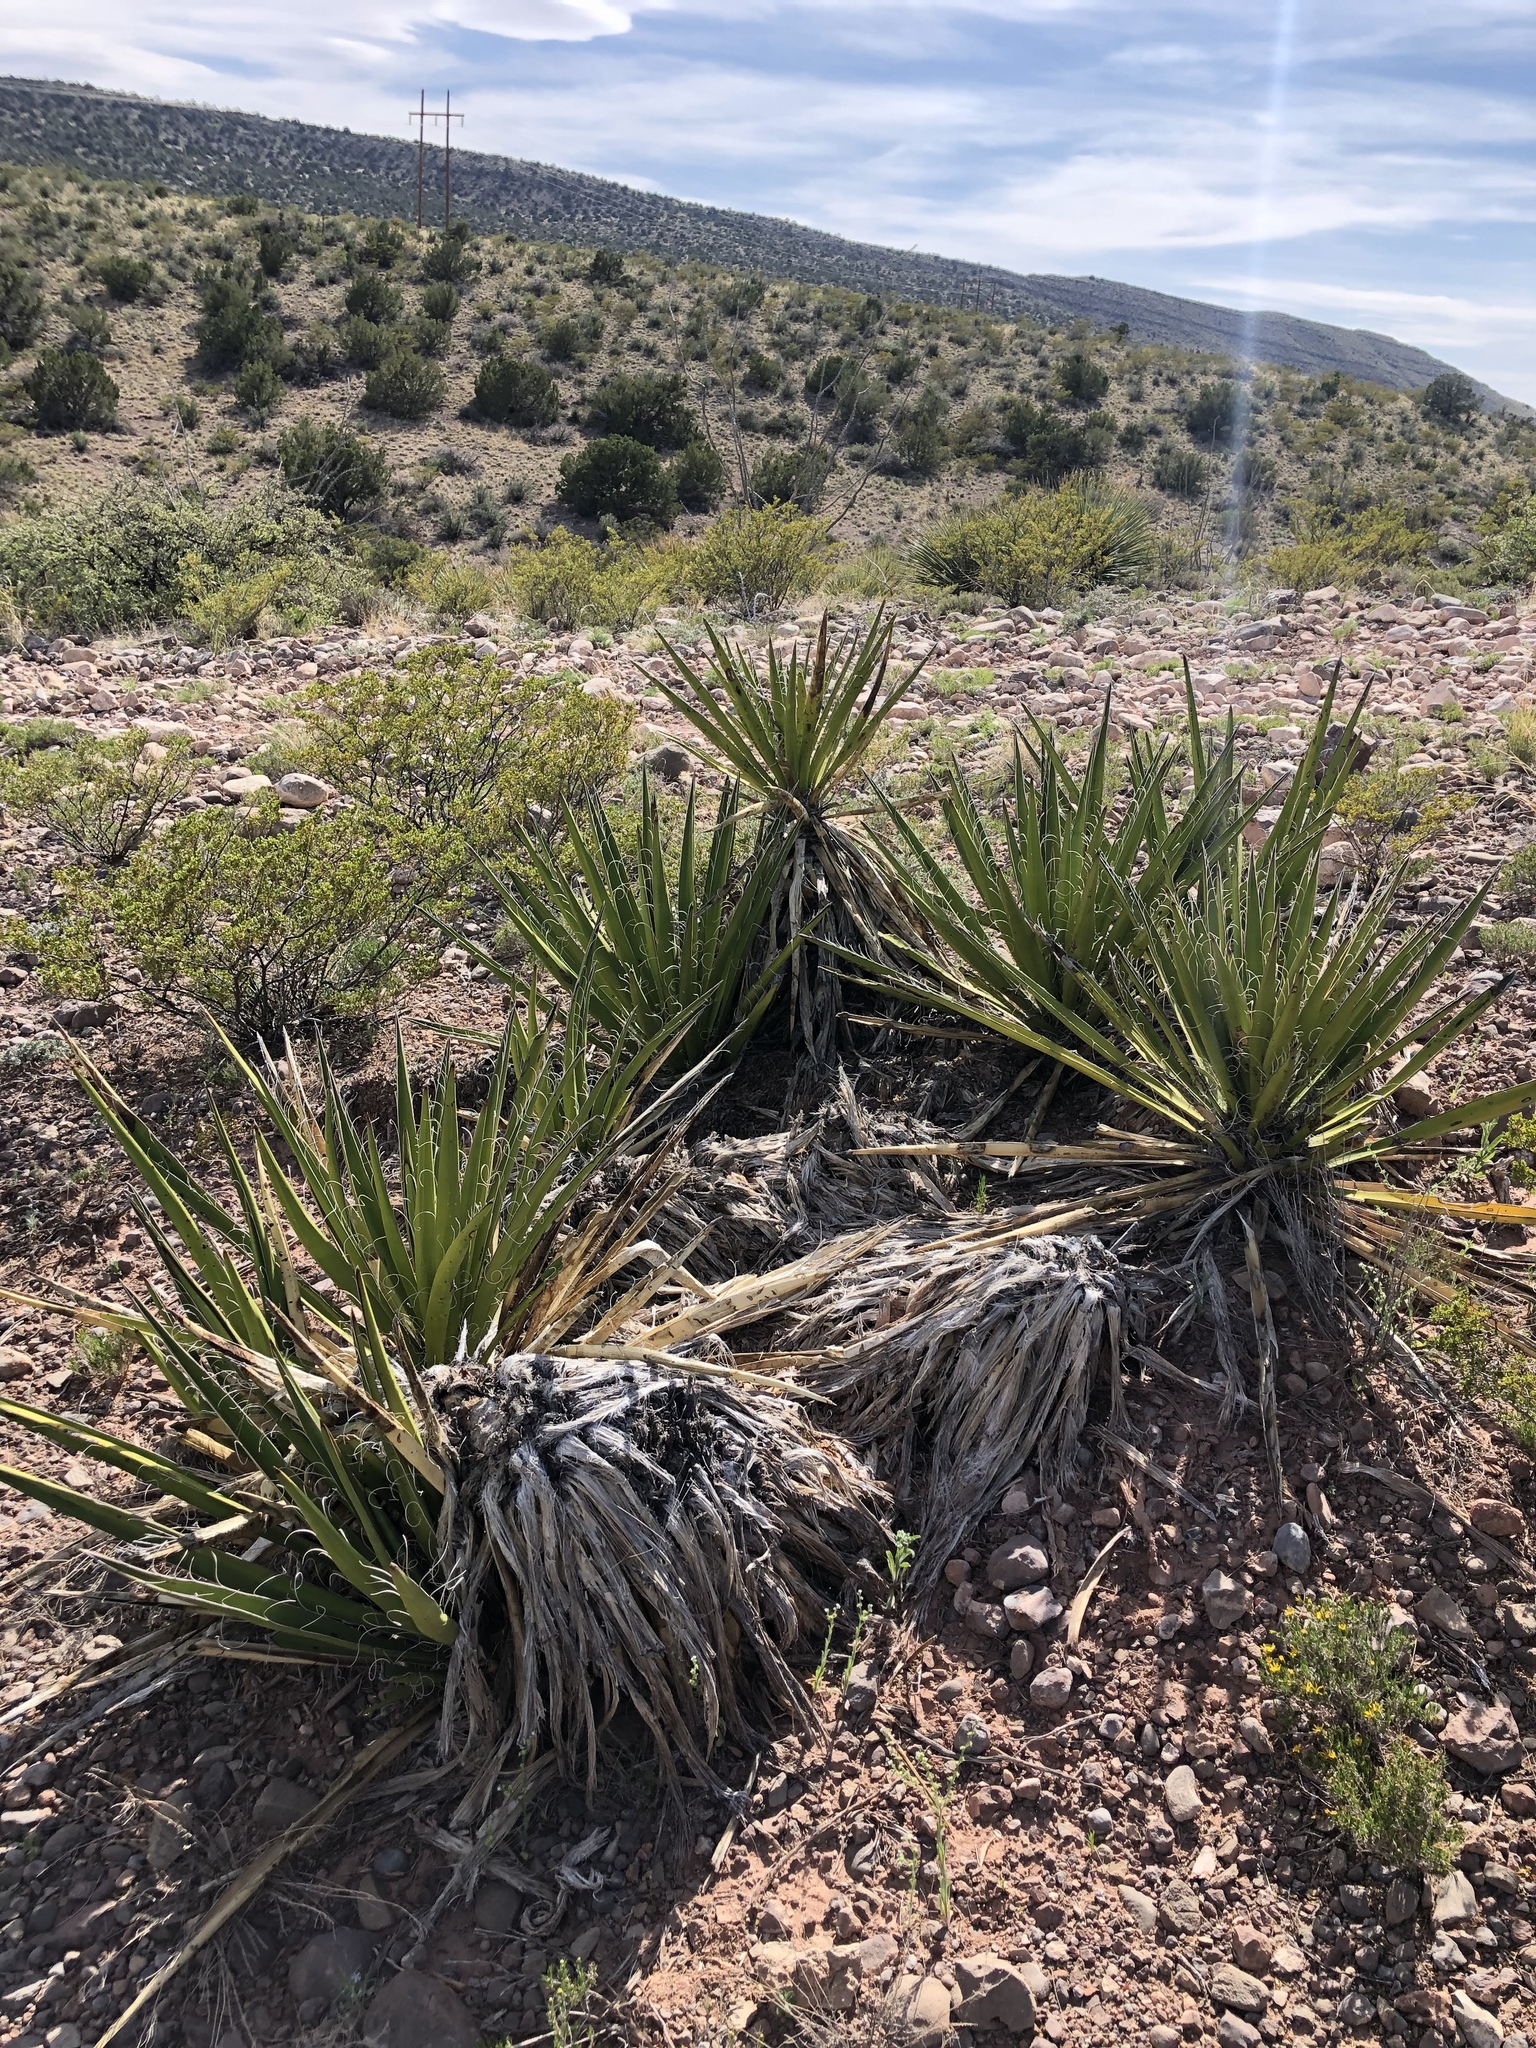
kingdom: Plantae
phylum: Tracheophyta
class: Liliopsida
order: Asparagales
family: Asparagaceae
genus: Yucca
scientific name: Yucca baccata
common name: Banana yucca
